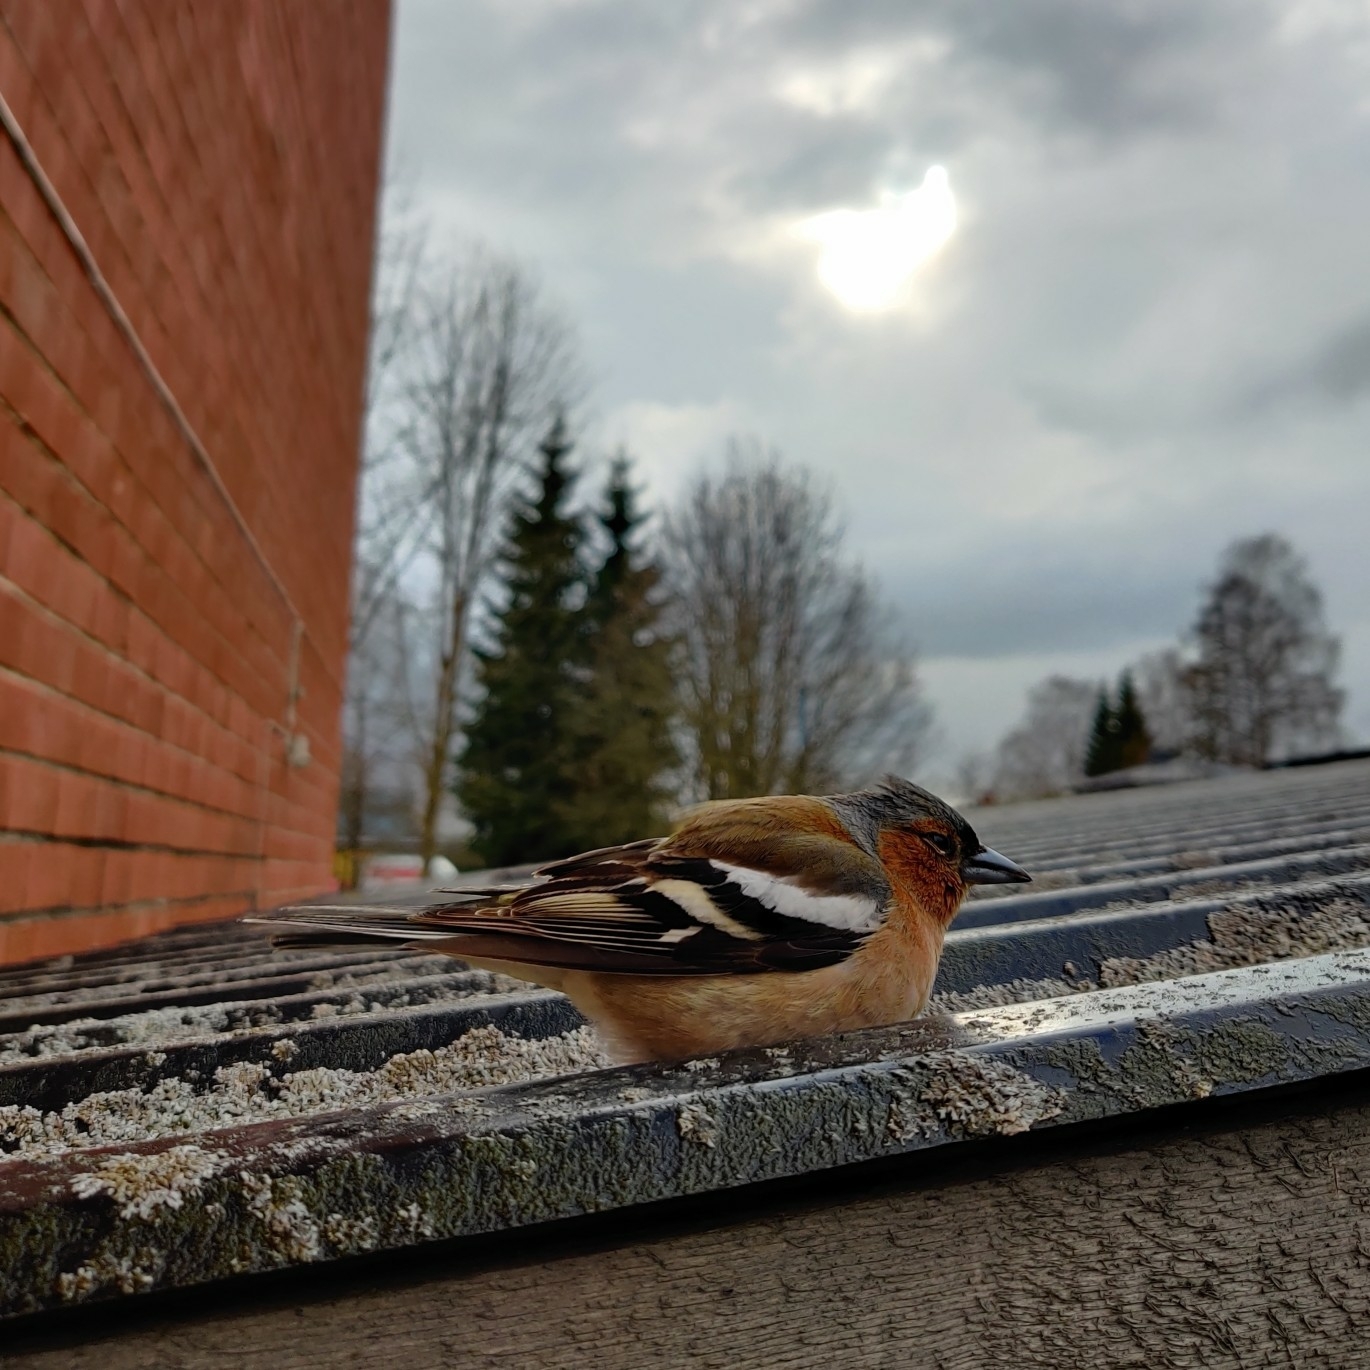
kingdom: Animalia
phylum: Chordata
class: Aves
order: Passeriformes
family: Fringillidae
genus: Fringilla
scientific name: Fringilla coelebs
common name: Common chaffinch
